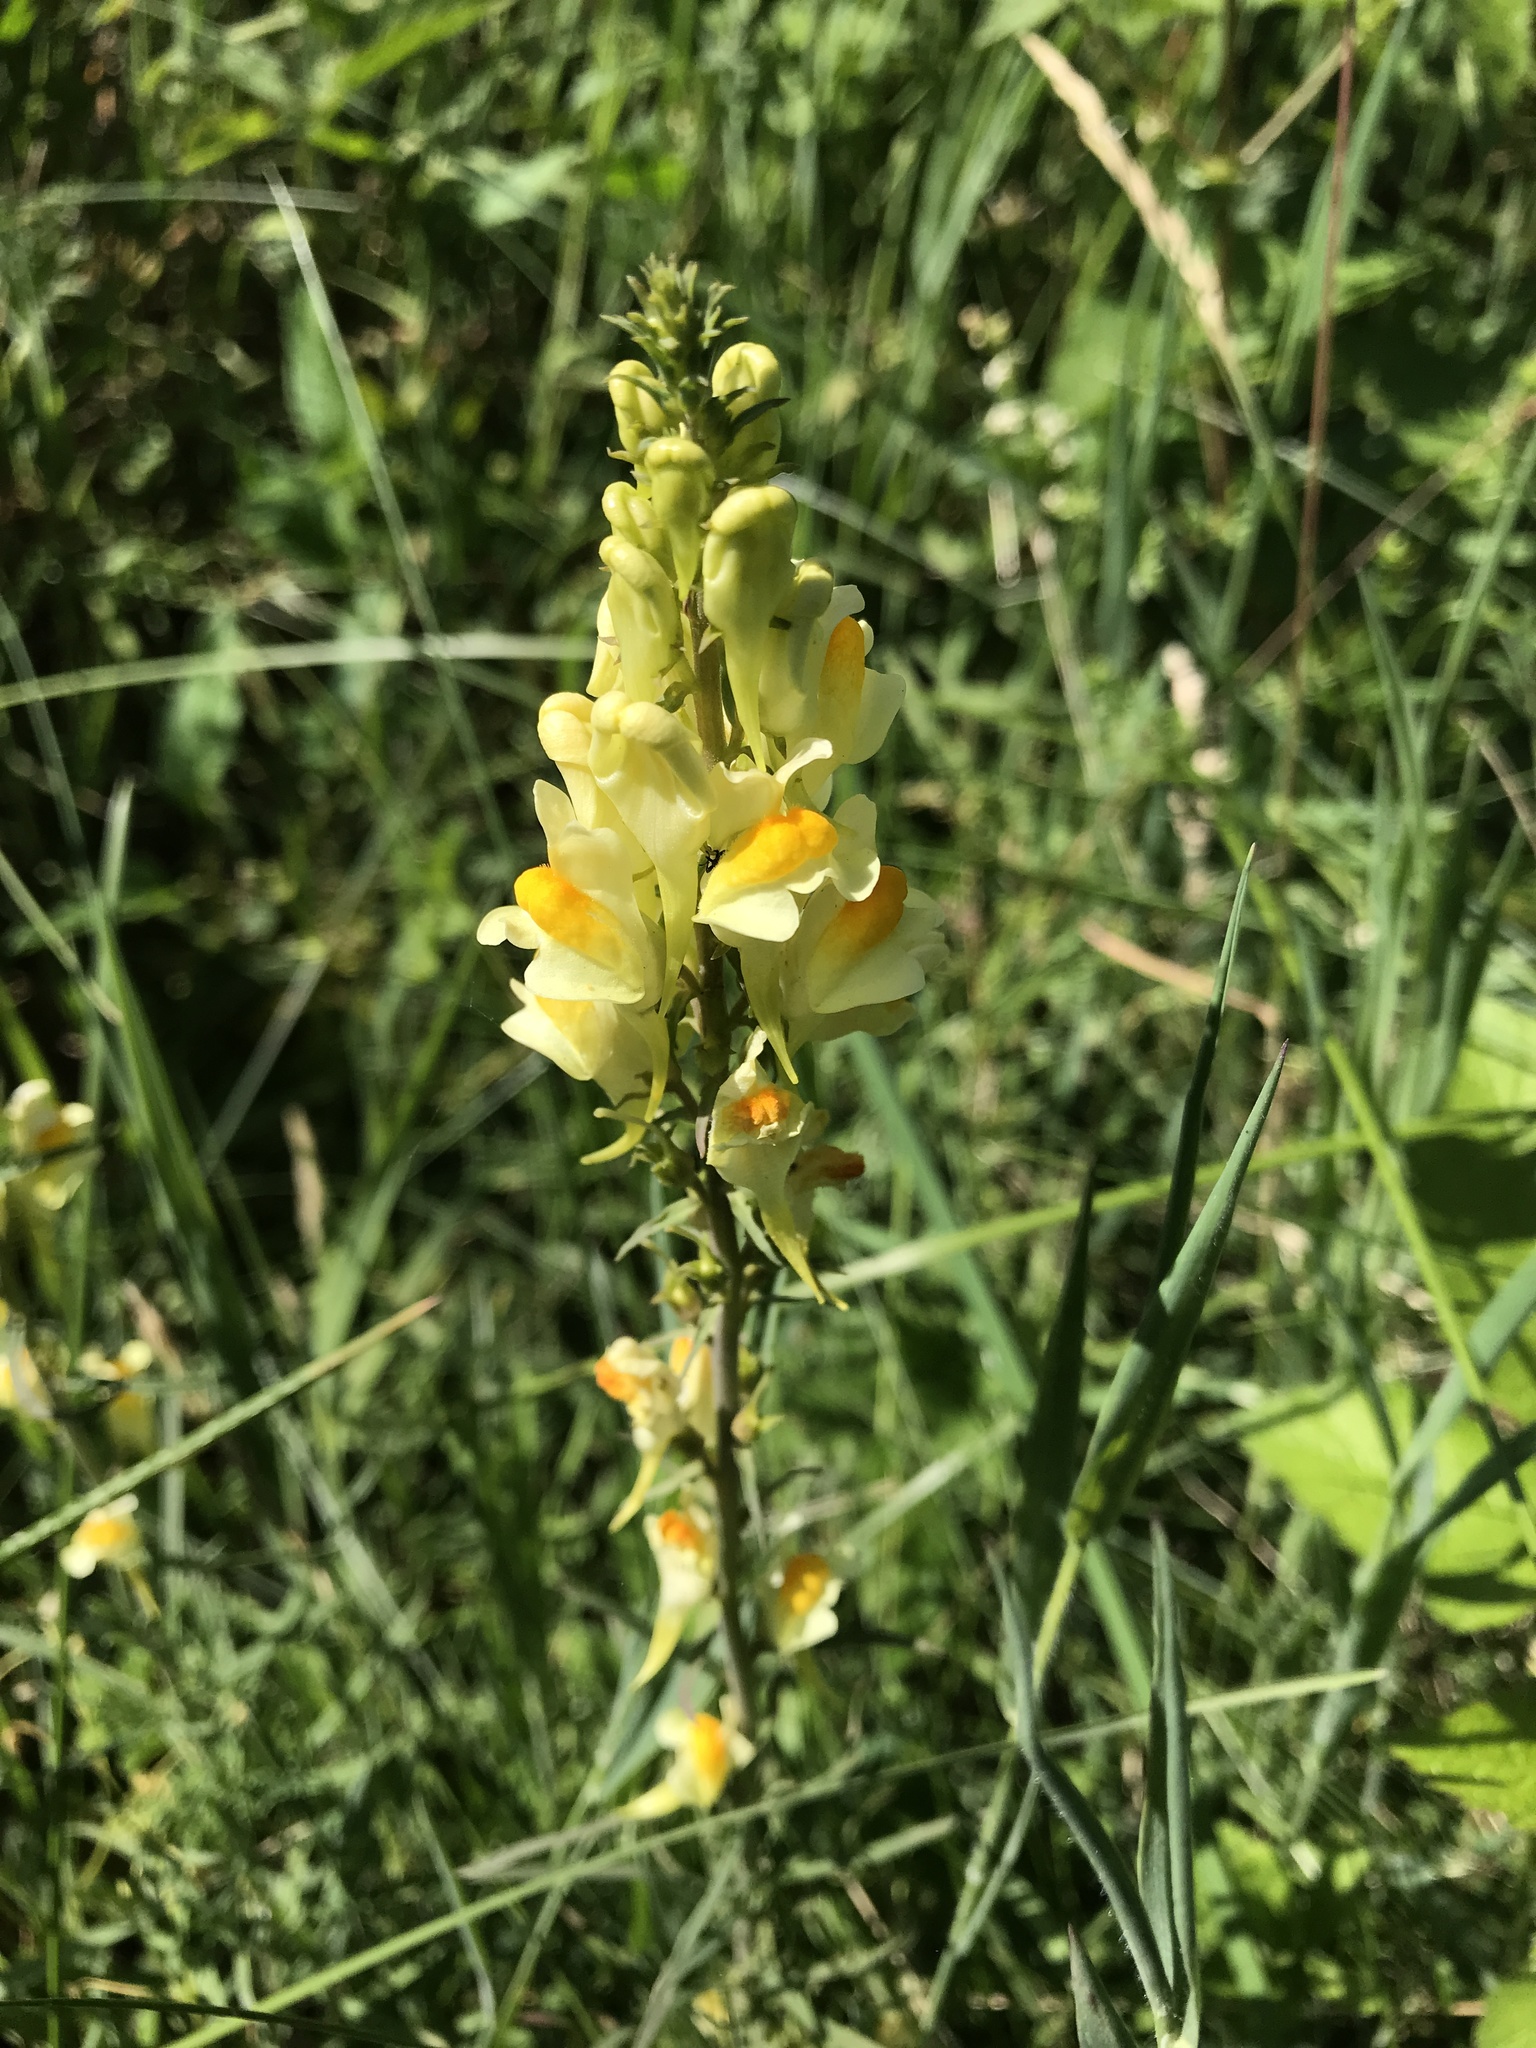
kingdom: Plantae
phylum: Tracheophyta
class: Magnoliopsida
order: Lamiales
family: Plantaginaceae
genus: Linaria
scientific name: Linaria vulgaris
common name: Butter and eggs
